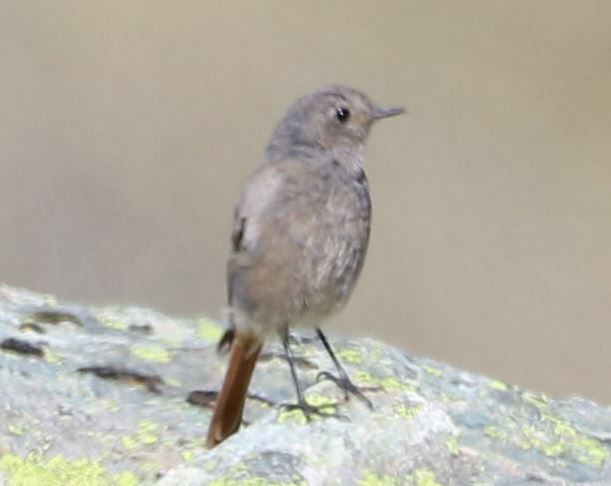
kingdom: Animalia
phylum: Chordata
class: Aves
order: Passeriformes
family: Muscicapidae
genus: Phoenicurus
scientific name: Phoenicurus ochruros
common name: Black redstart
